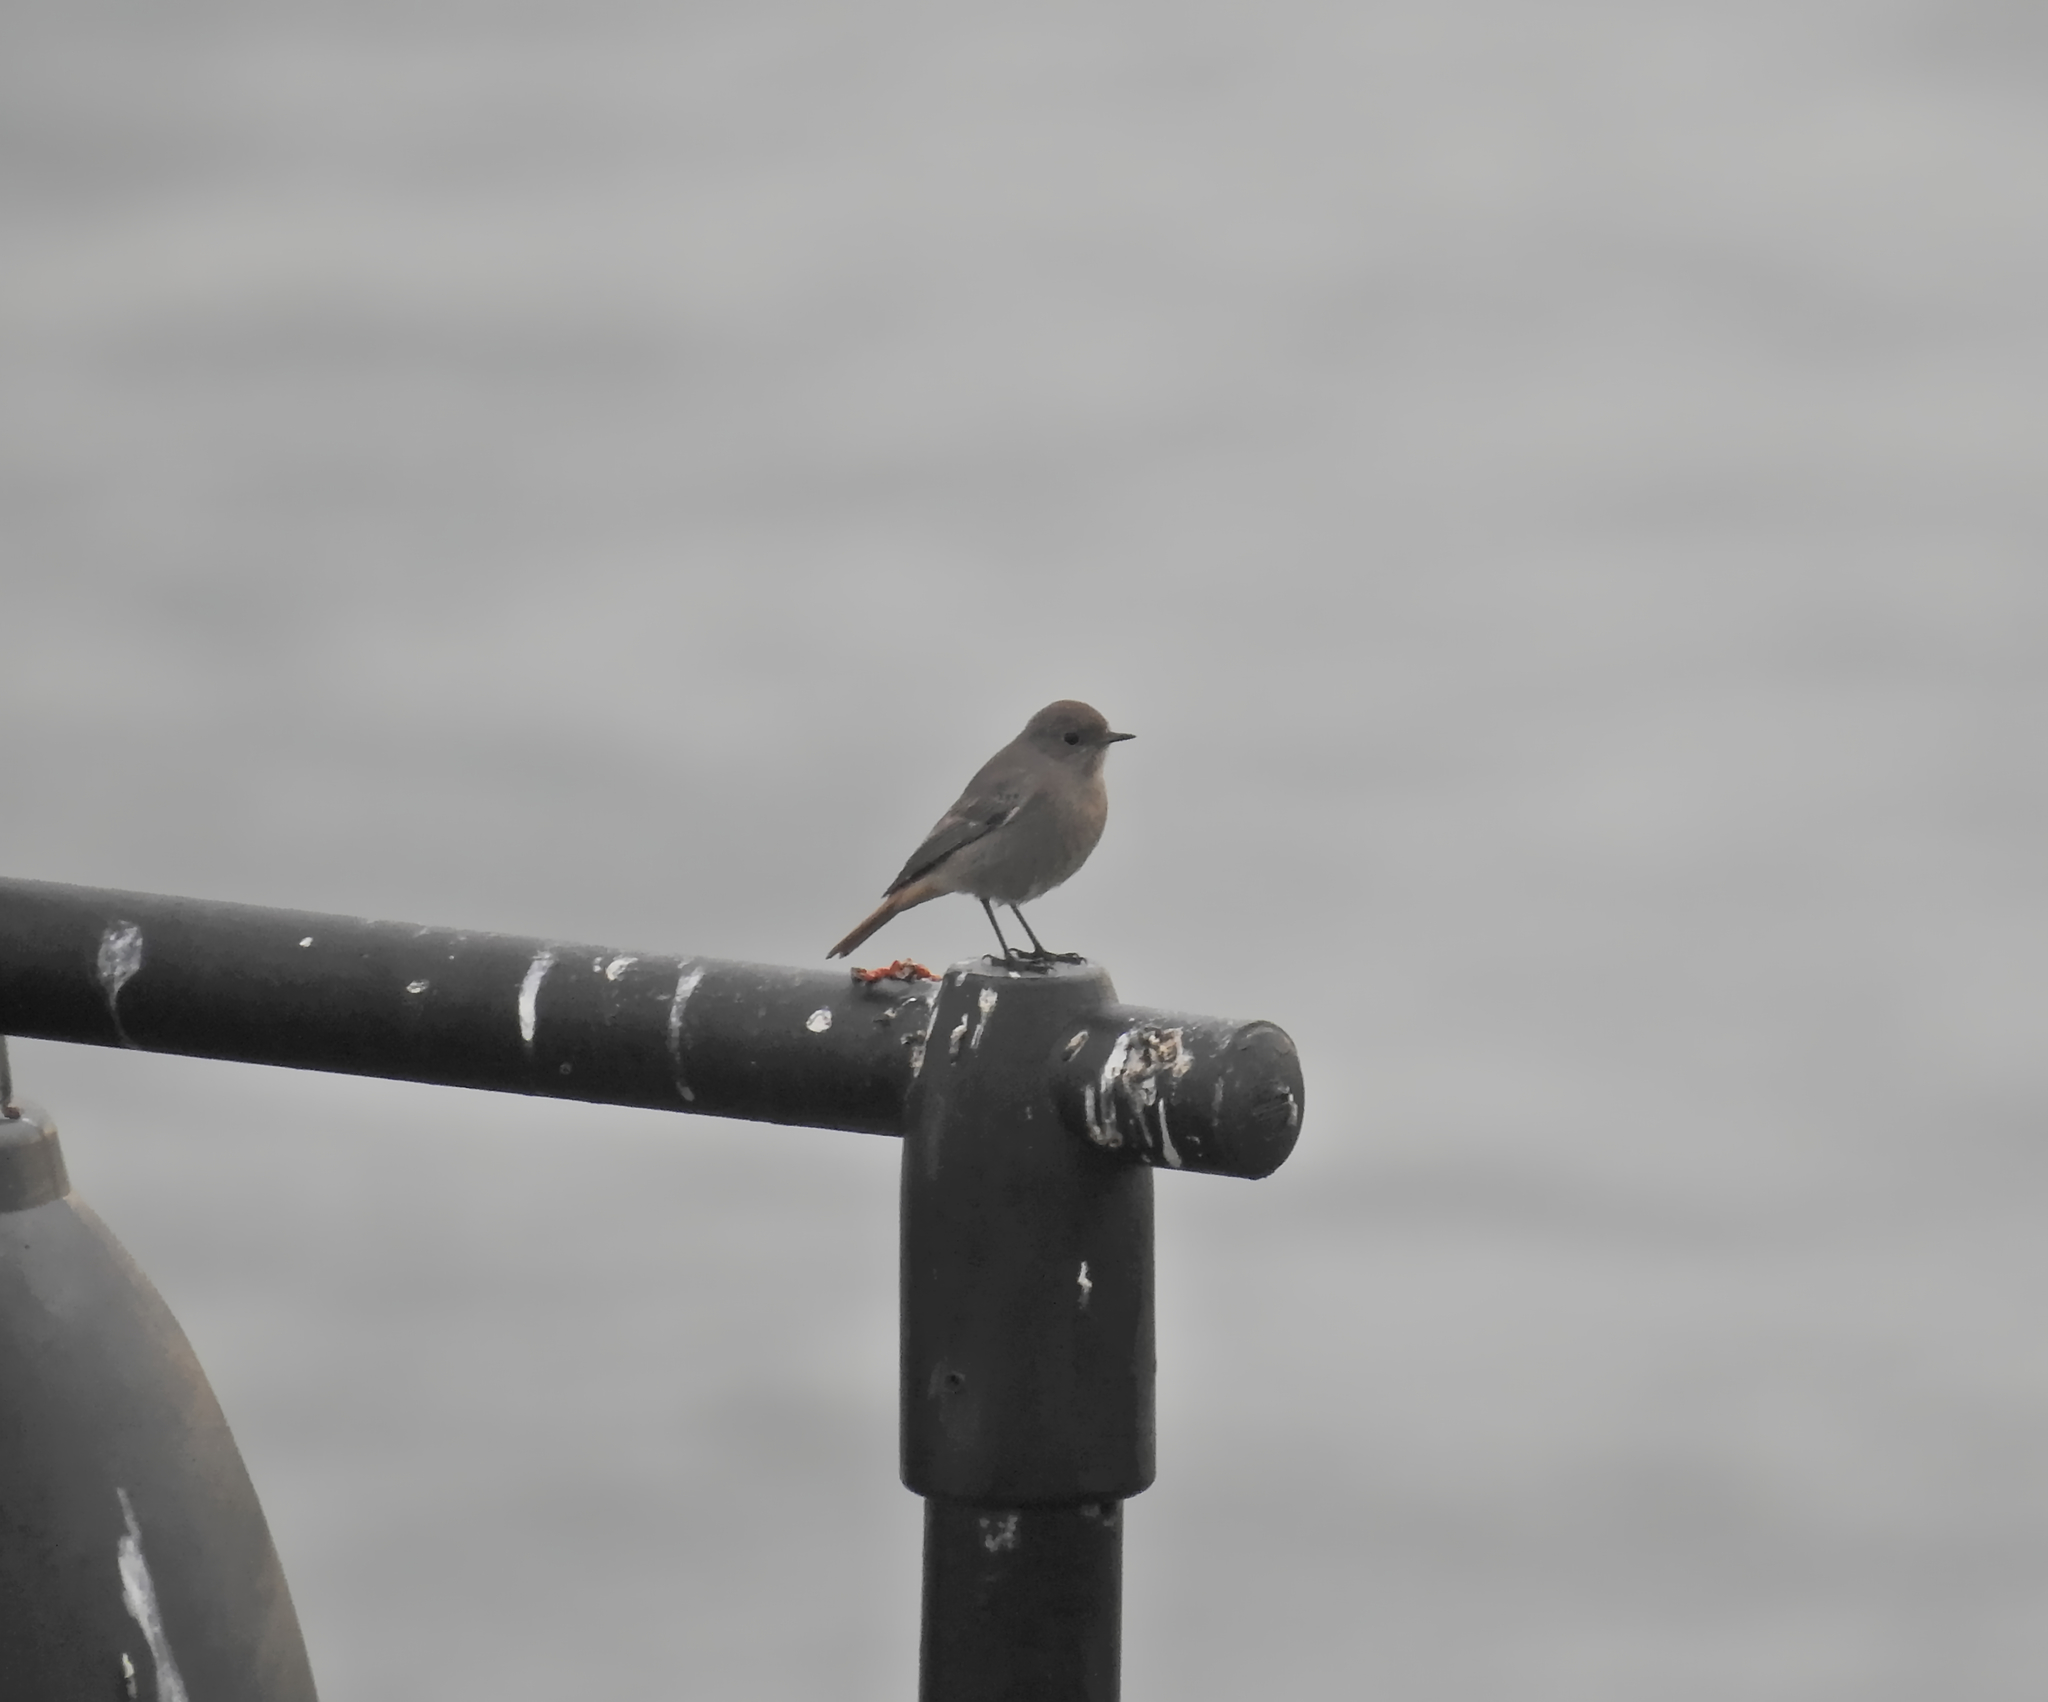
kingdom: Animalia
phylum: Chordata
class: Aves
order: Passeriformes
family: Muscicapidae
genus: Phoenicurus
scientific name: Phoenicurus ochruros
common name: Black redstart
